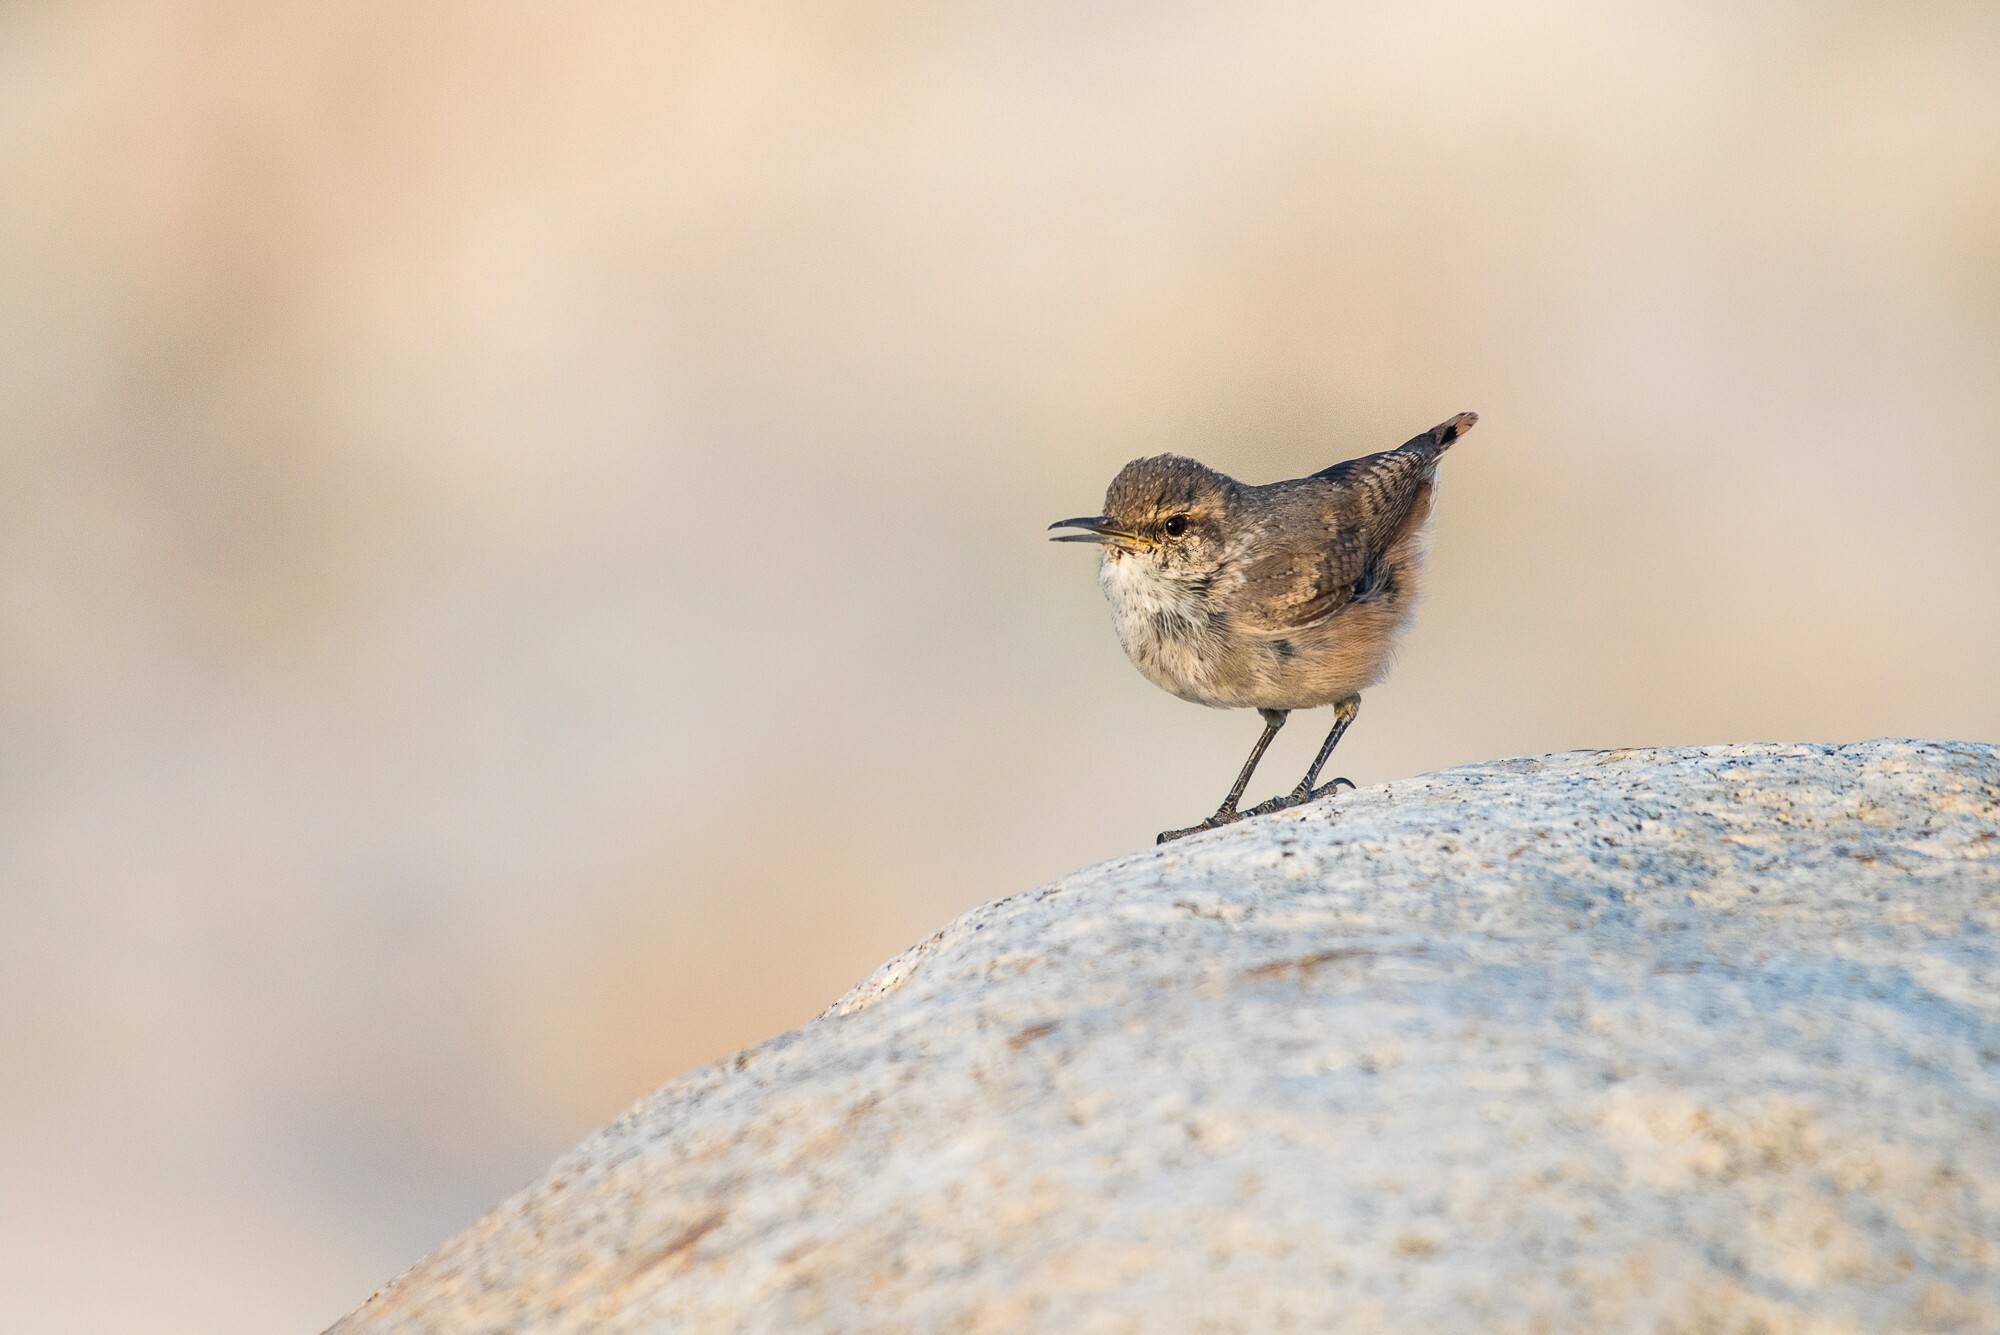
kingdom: Animalia
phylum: Chordata
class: Aves
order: Passeriformes
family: Troglodytidae
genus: Salpinctes
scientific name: Salpinctes obsoletus
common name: Rock wren
